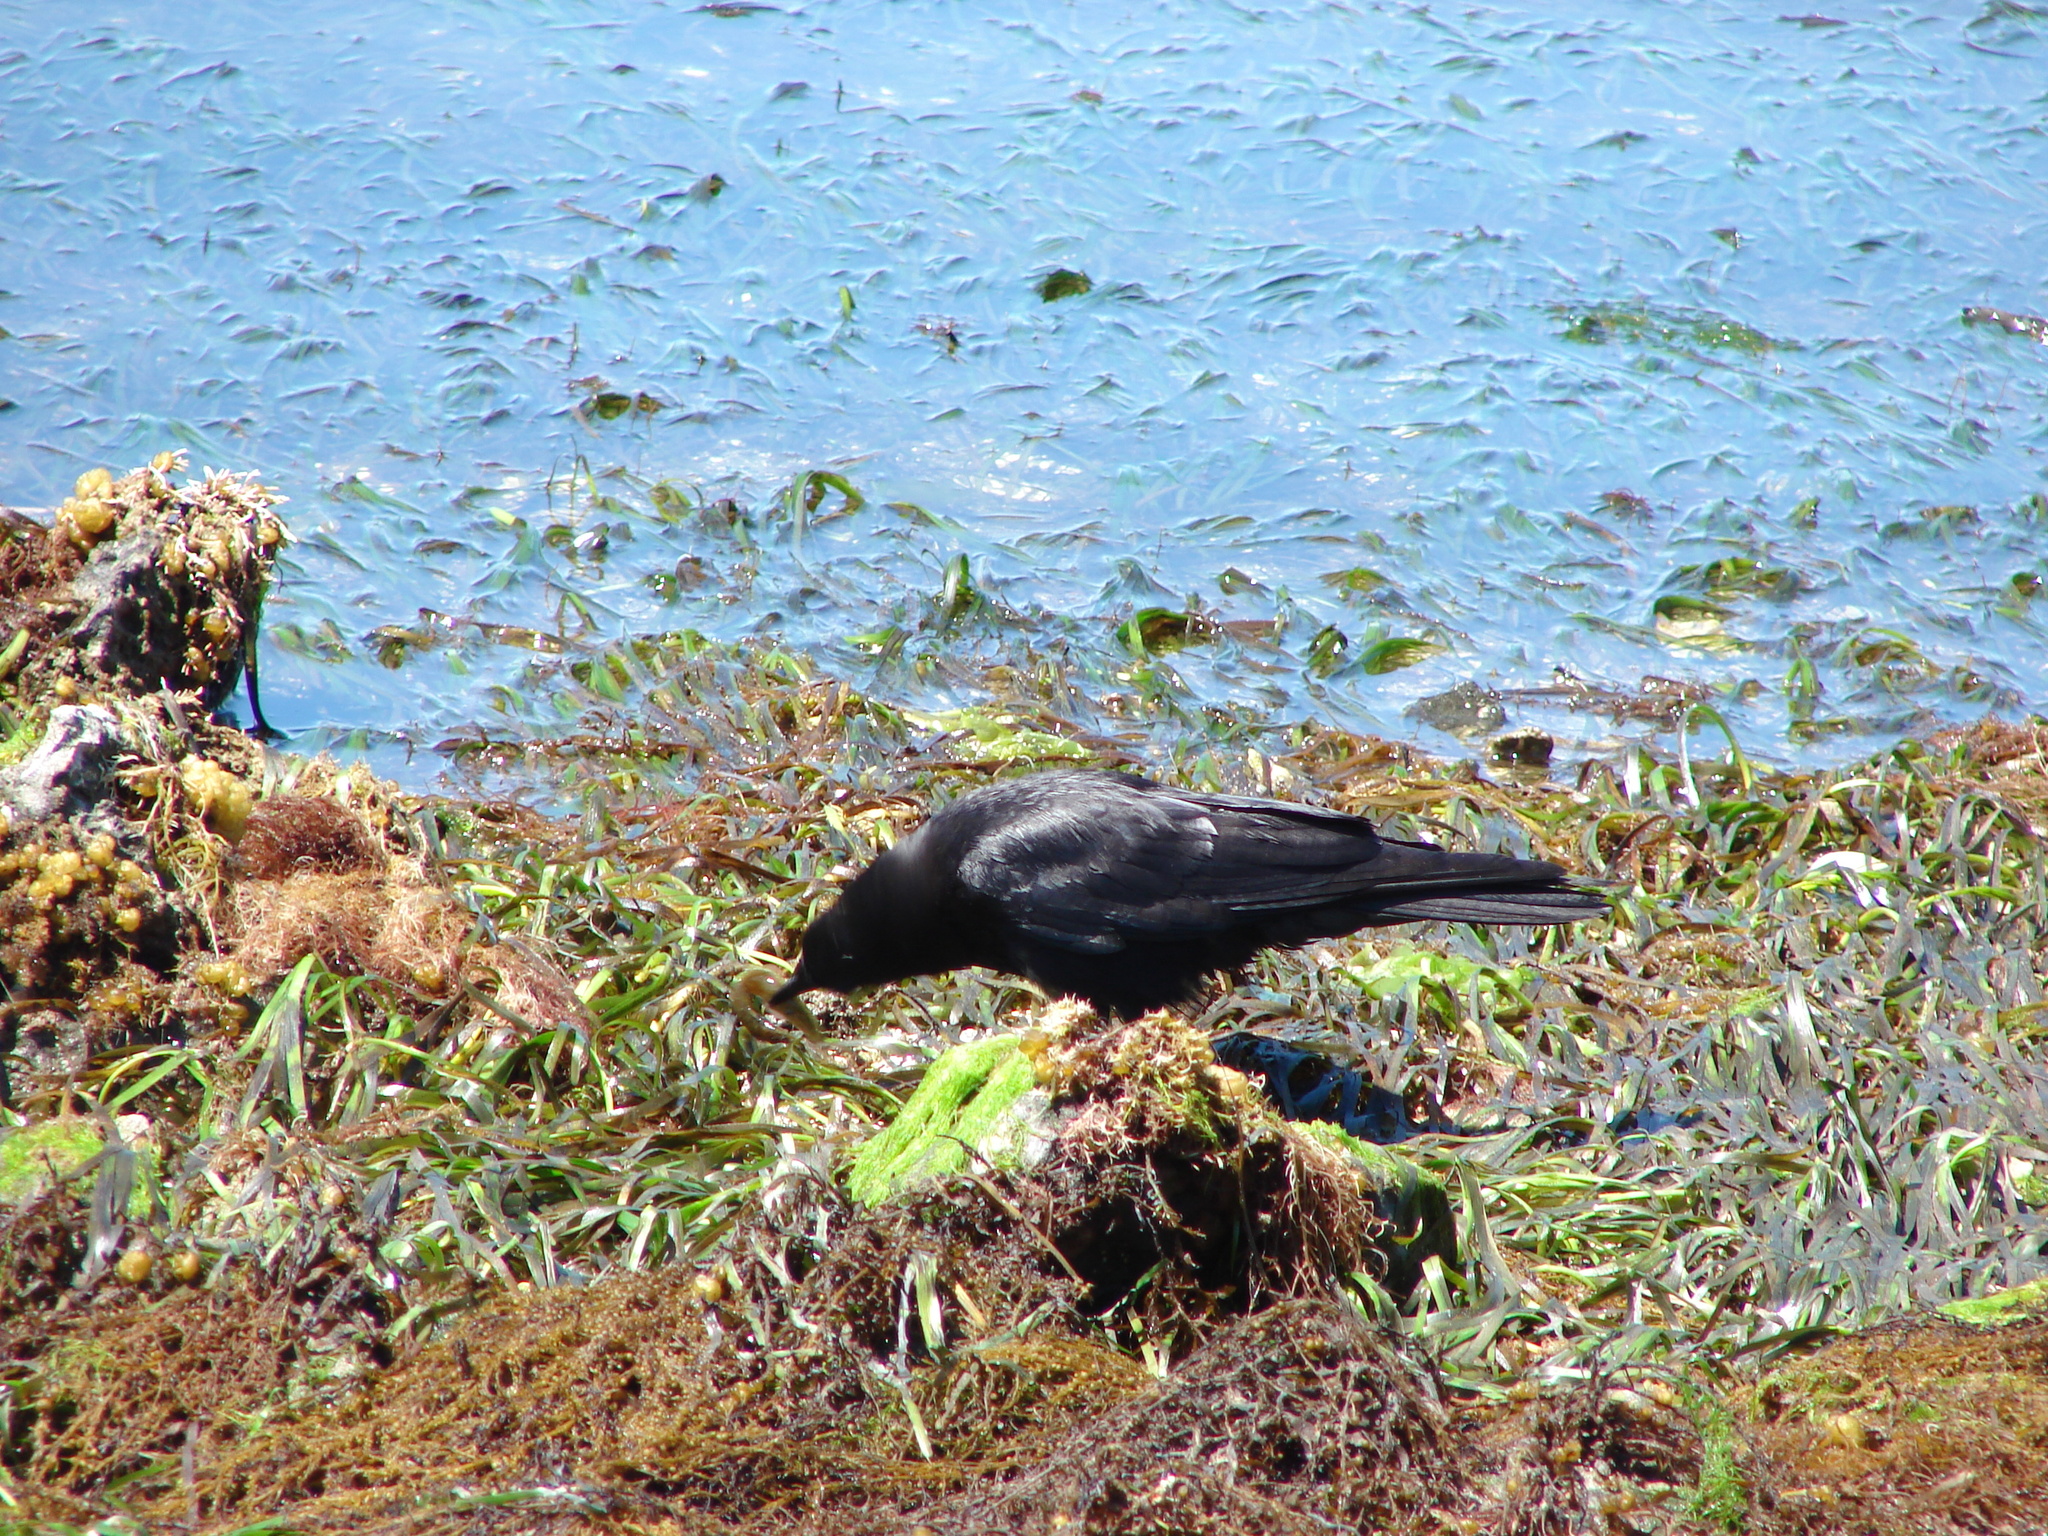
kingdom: Animalia
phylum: Chordata
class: Aves
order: Passeriformes
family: Corvidae
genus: Corvus
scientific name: Corvus brachyrhynchos
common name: American crow
